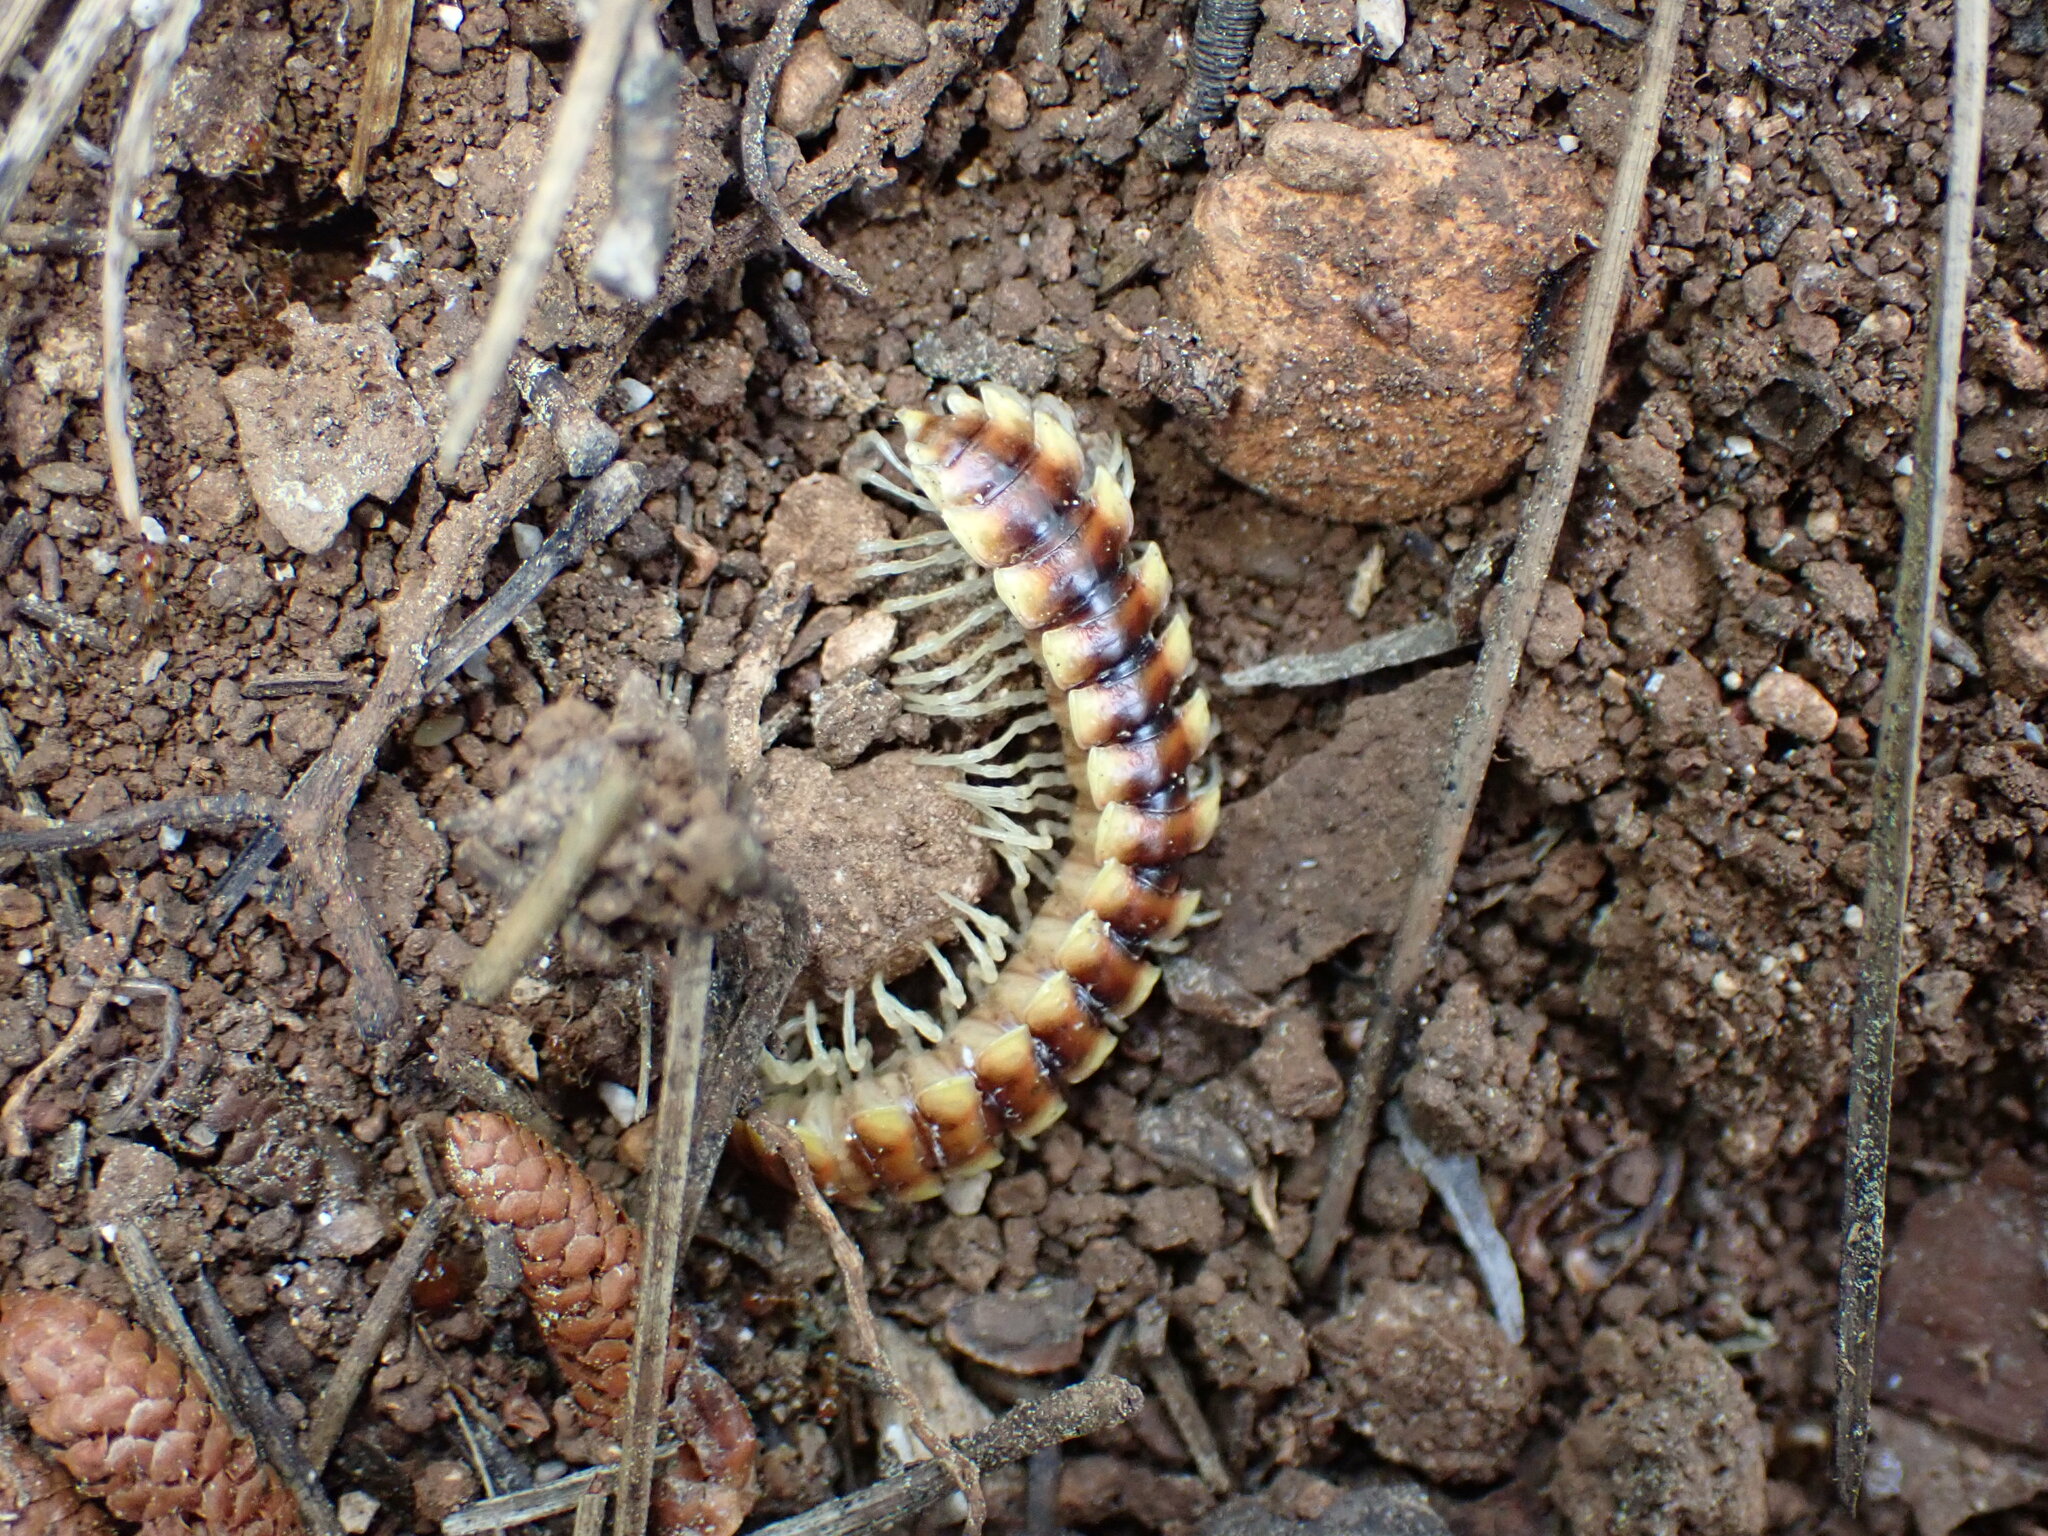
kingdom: Animalia
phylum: Arthropoda
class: Diplopoda
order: Polydesmida
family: Xystodesmidae
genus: Melaphe
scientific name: Melaphe vestita
